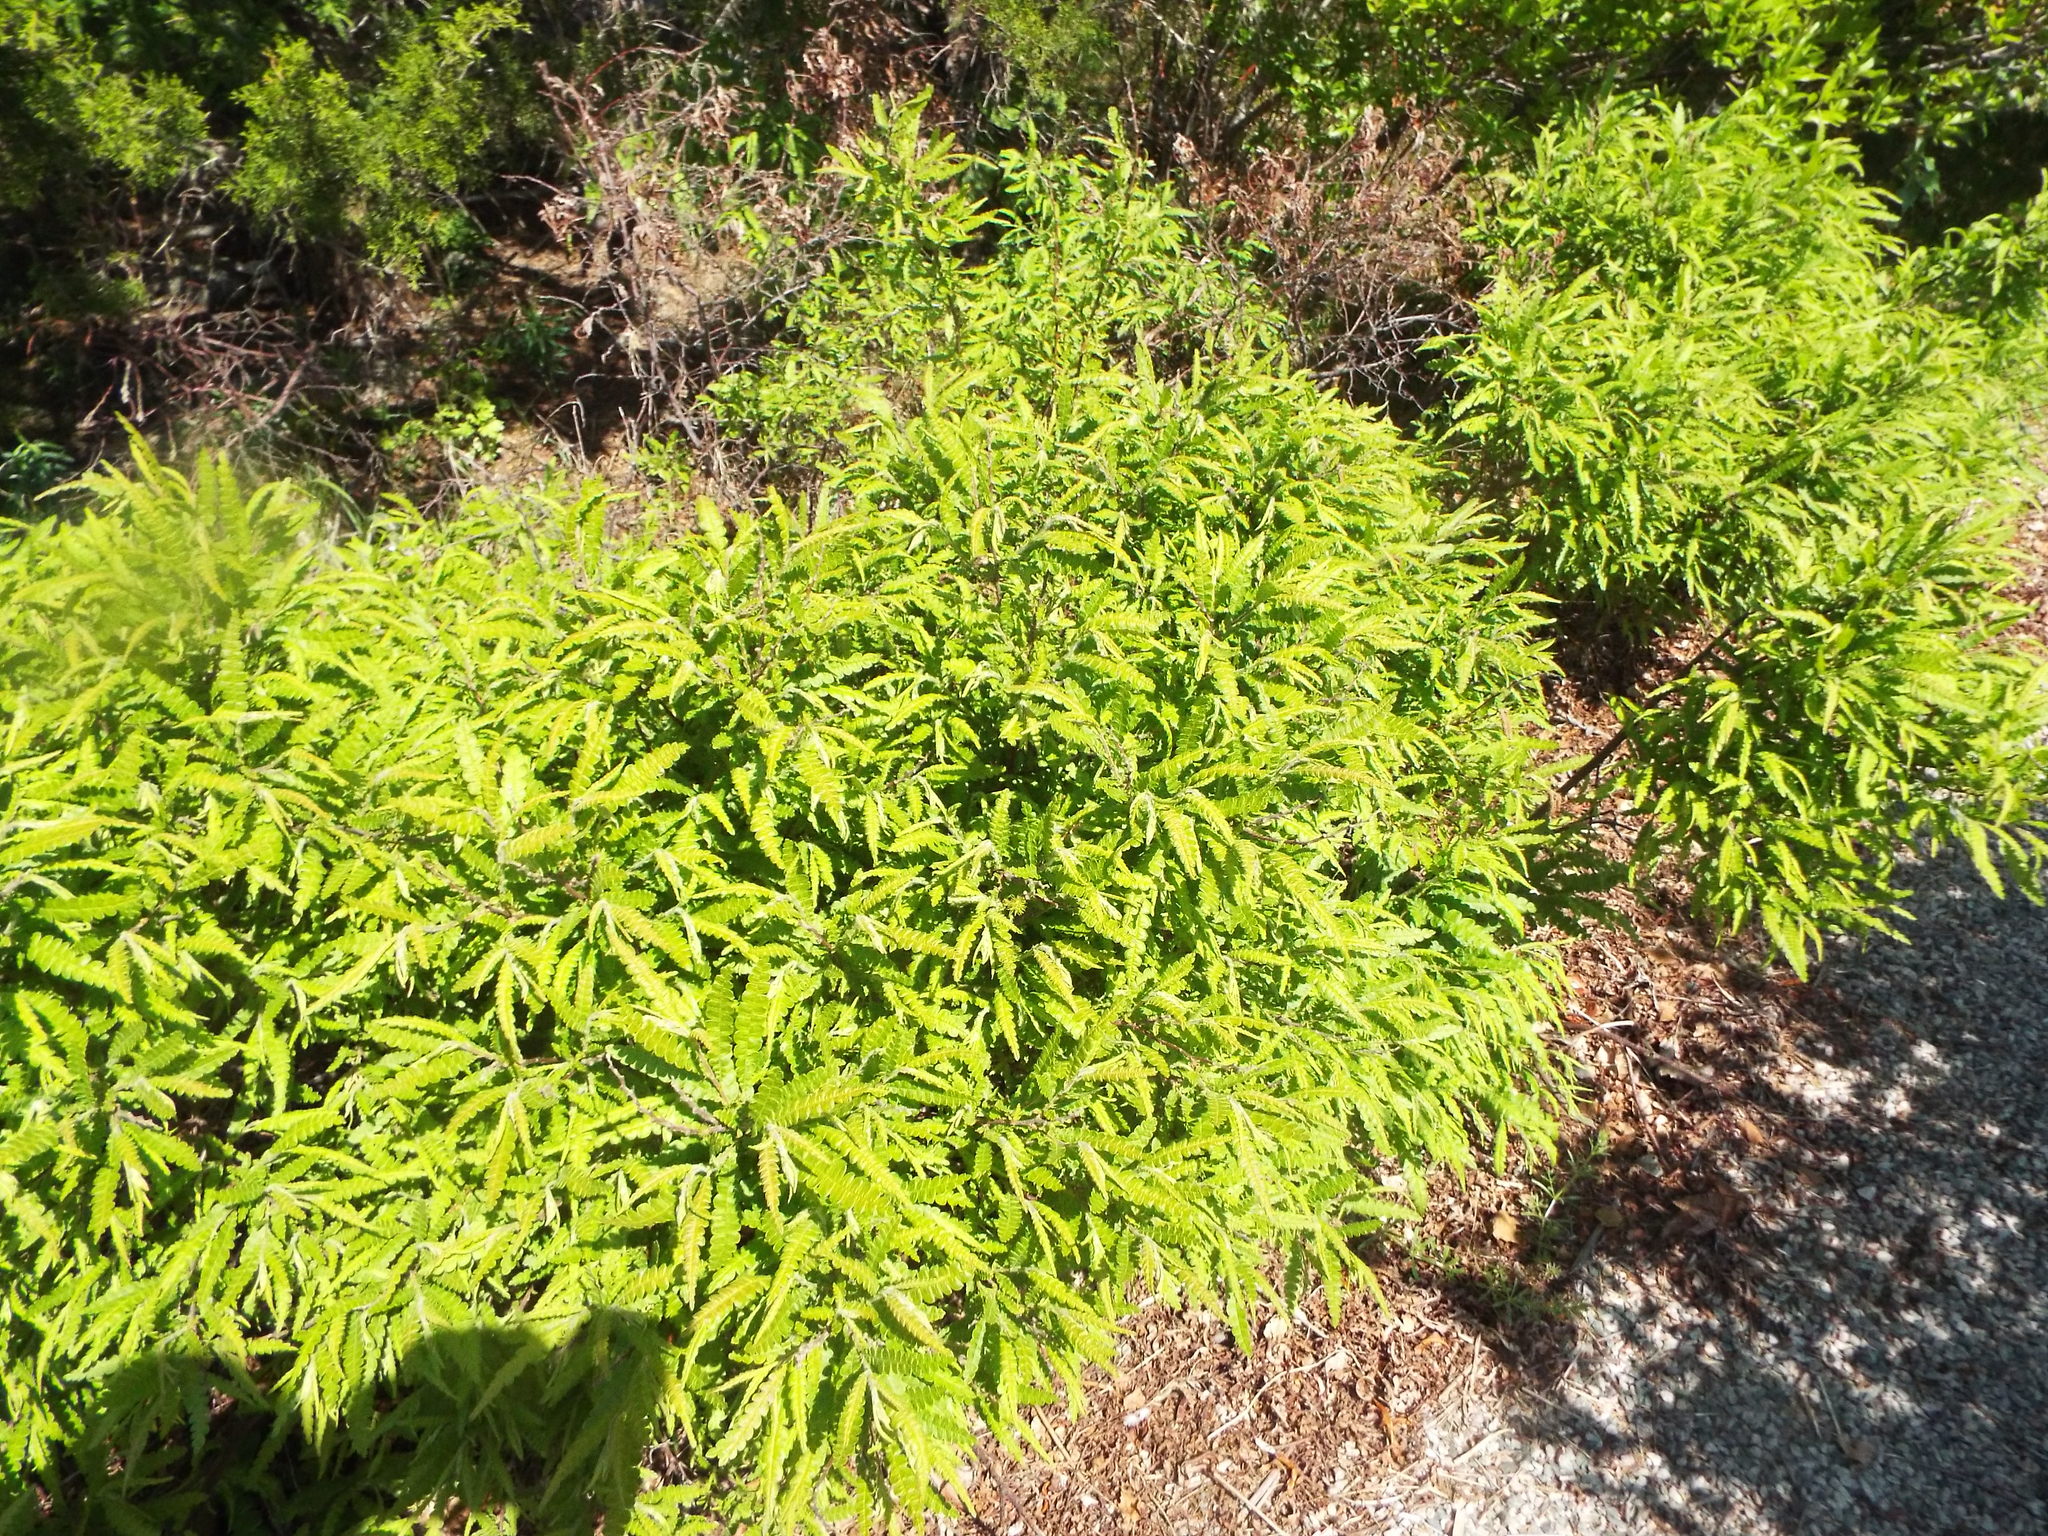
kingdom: Plantae
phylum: Tracheophyta
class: Magnoliopsida
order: Fagales
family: Myricaceae
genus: Comptonia
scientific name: Comptonia peregrina
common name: Sweet-fern
